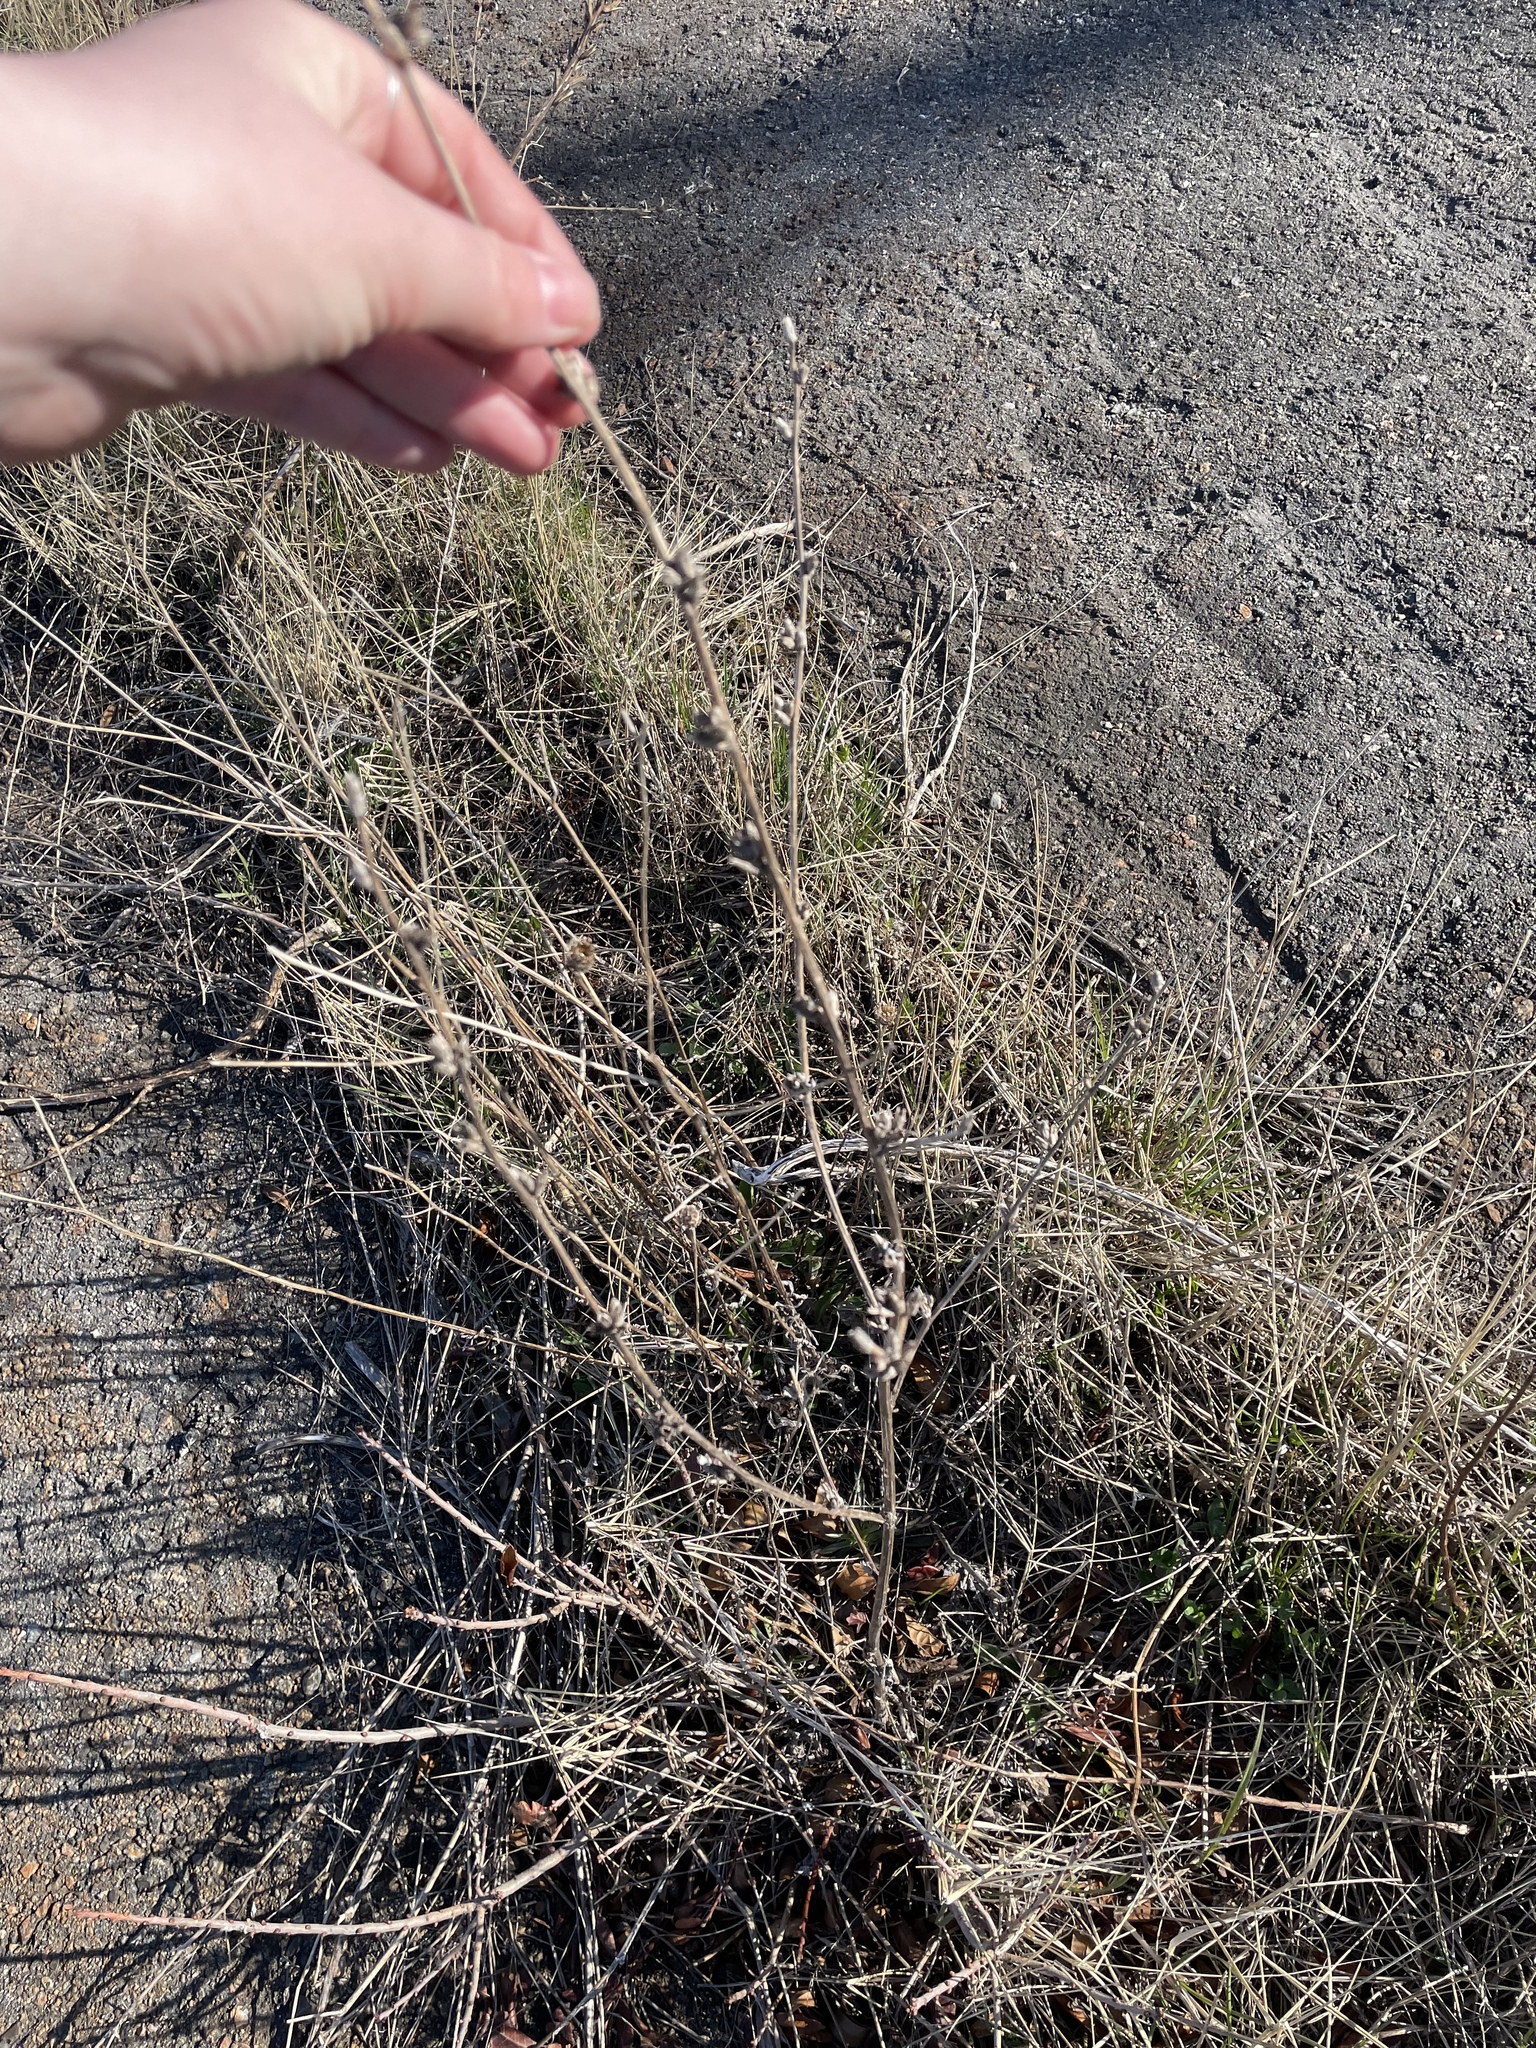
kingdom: Plantae
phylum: Tracheophyta
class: Magnoliopsida
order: Asterales
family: Asteraceae
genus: Cichorium
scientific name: Cichorium intybus
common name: Chicory
